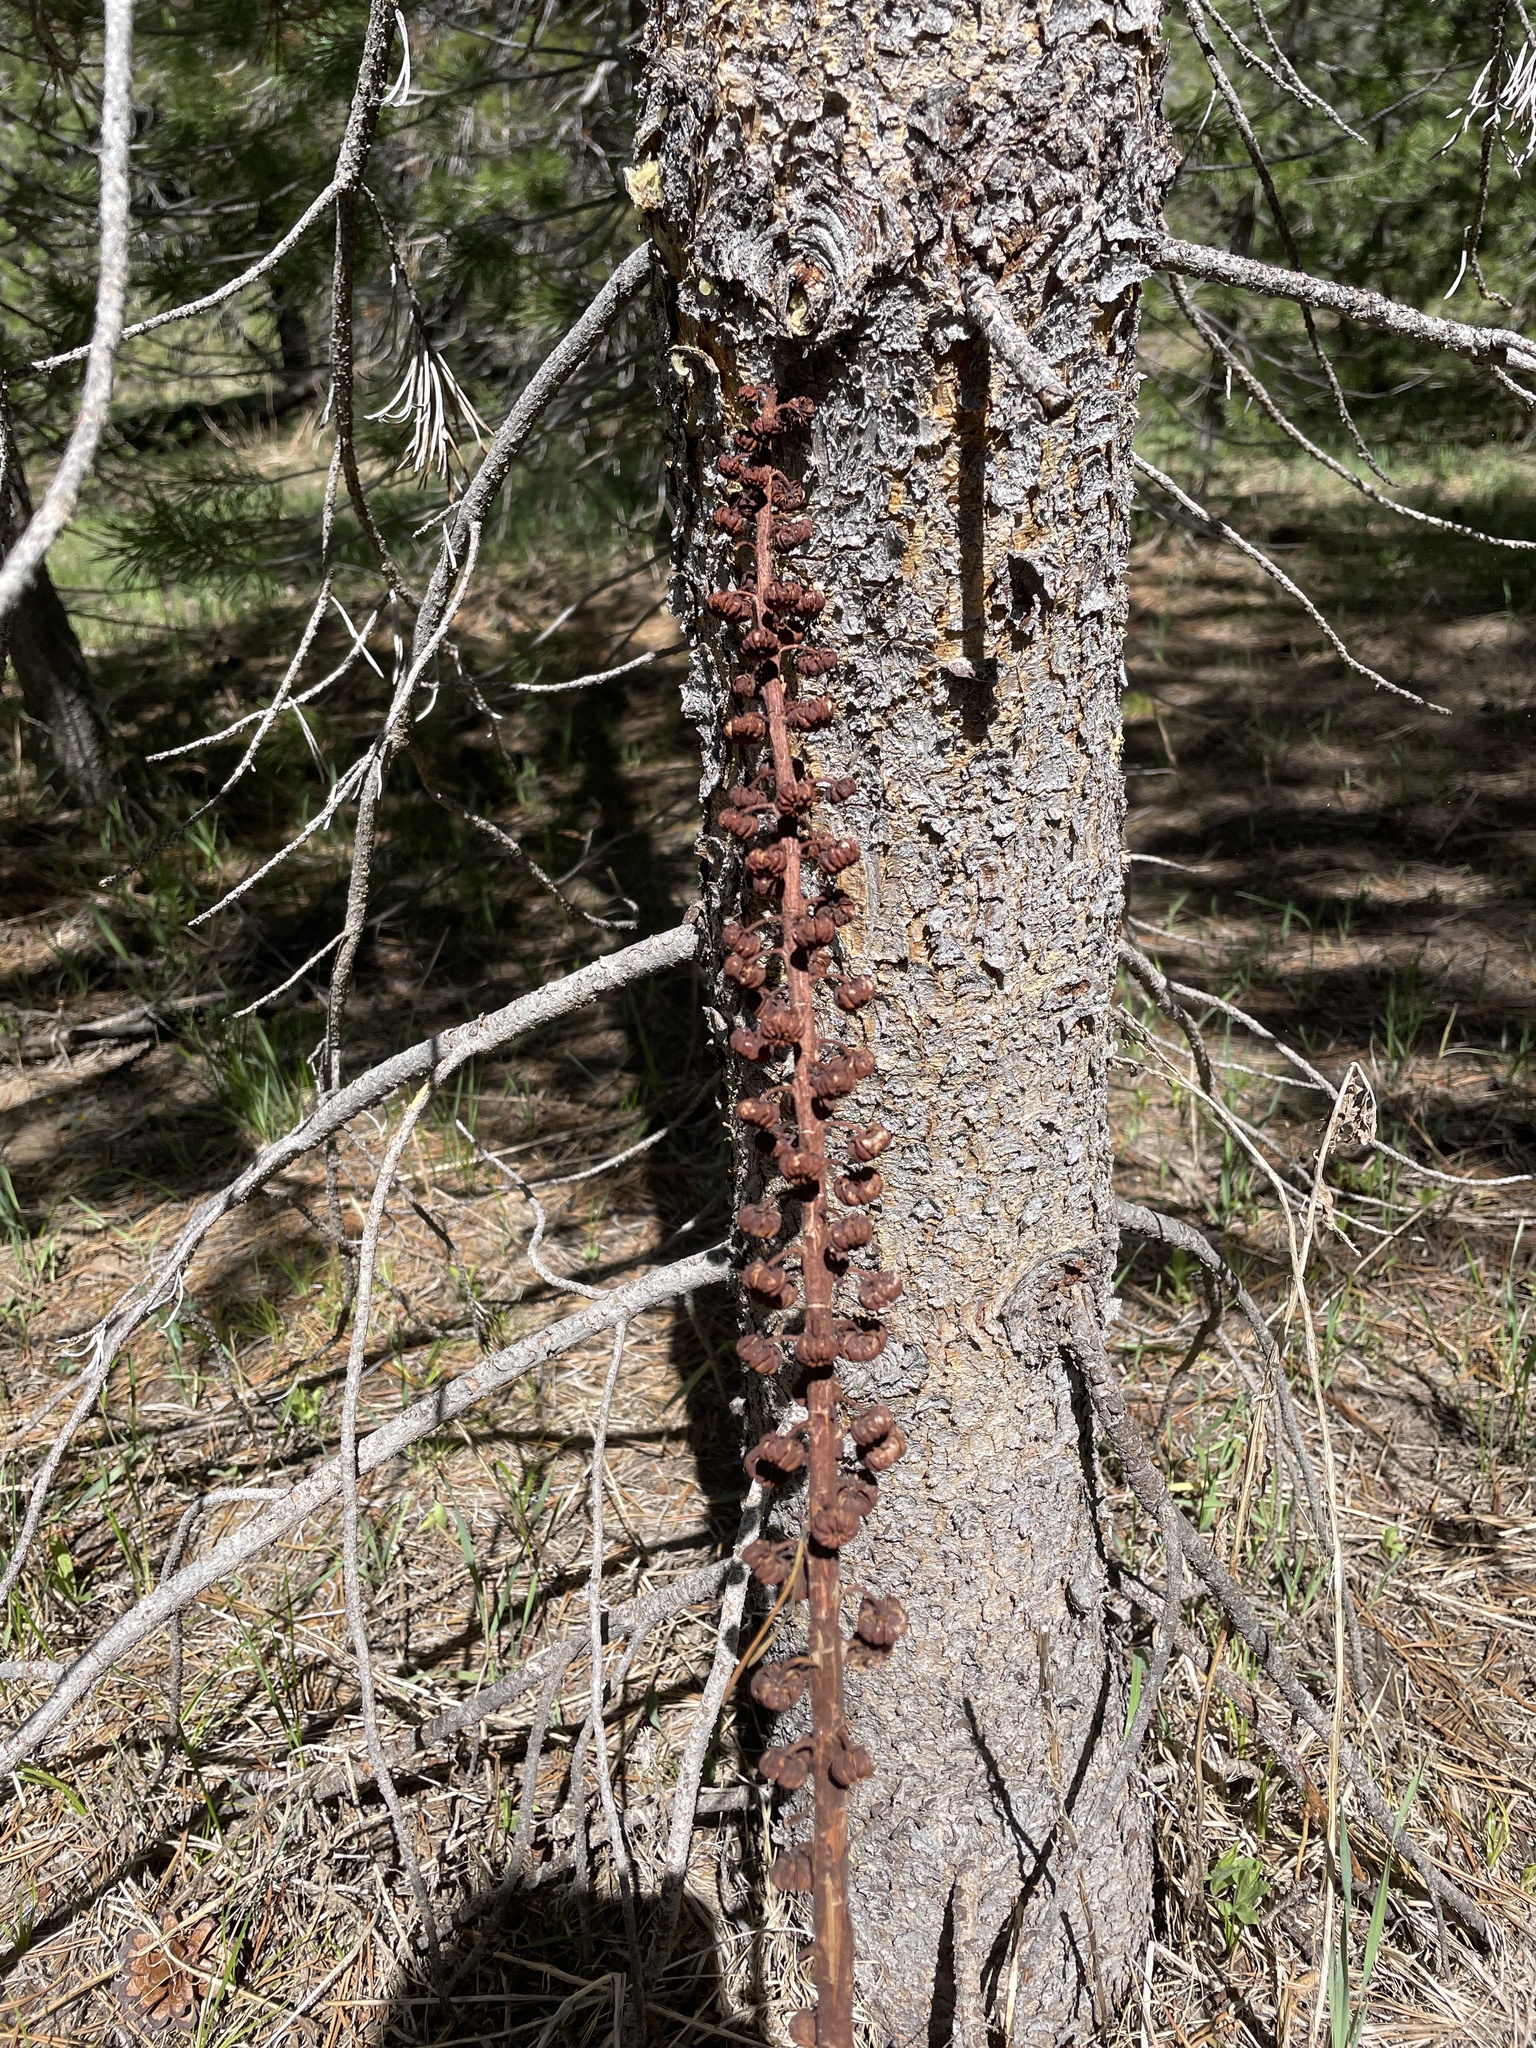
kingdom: Plantae
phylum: Tracheophyta
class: Magnoliopsida
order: Ericales
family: Ericaceae
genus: Pterospora
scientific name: Pterospora andromedea
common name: Giant bird's-nest
